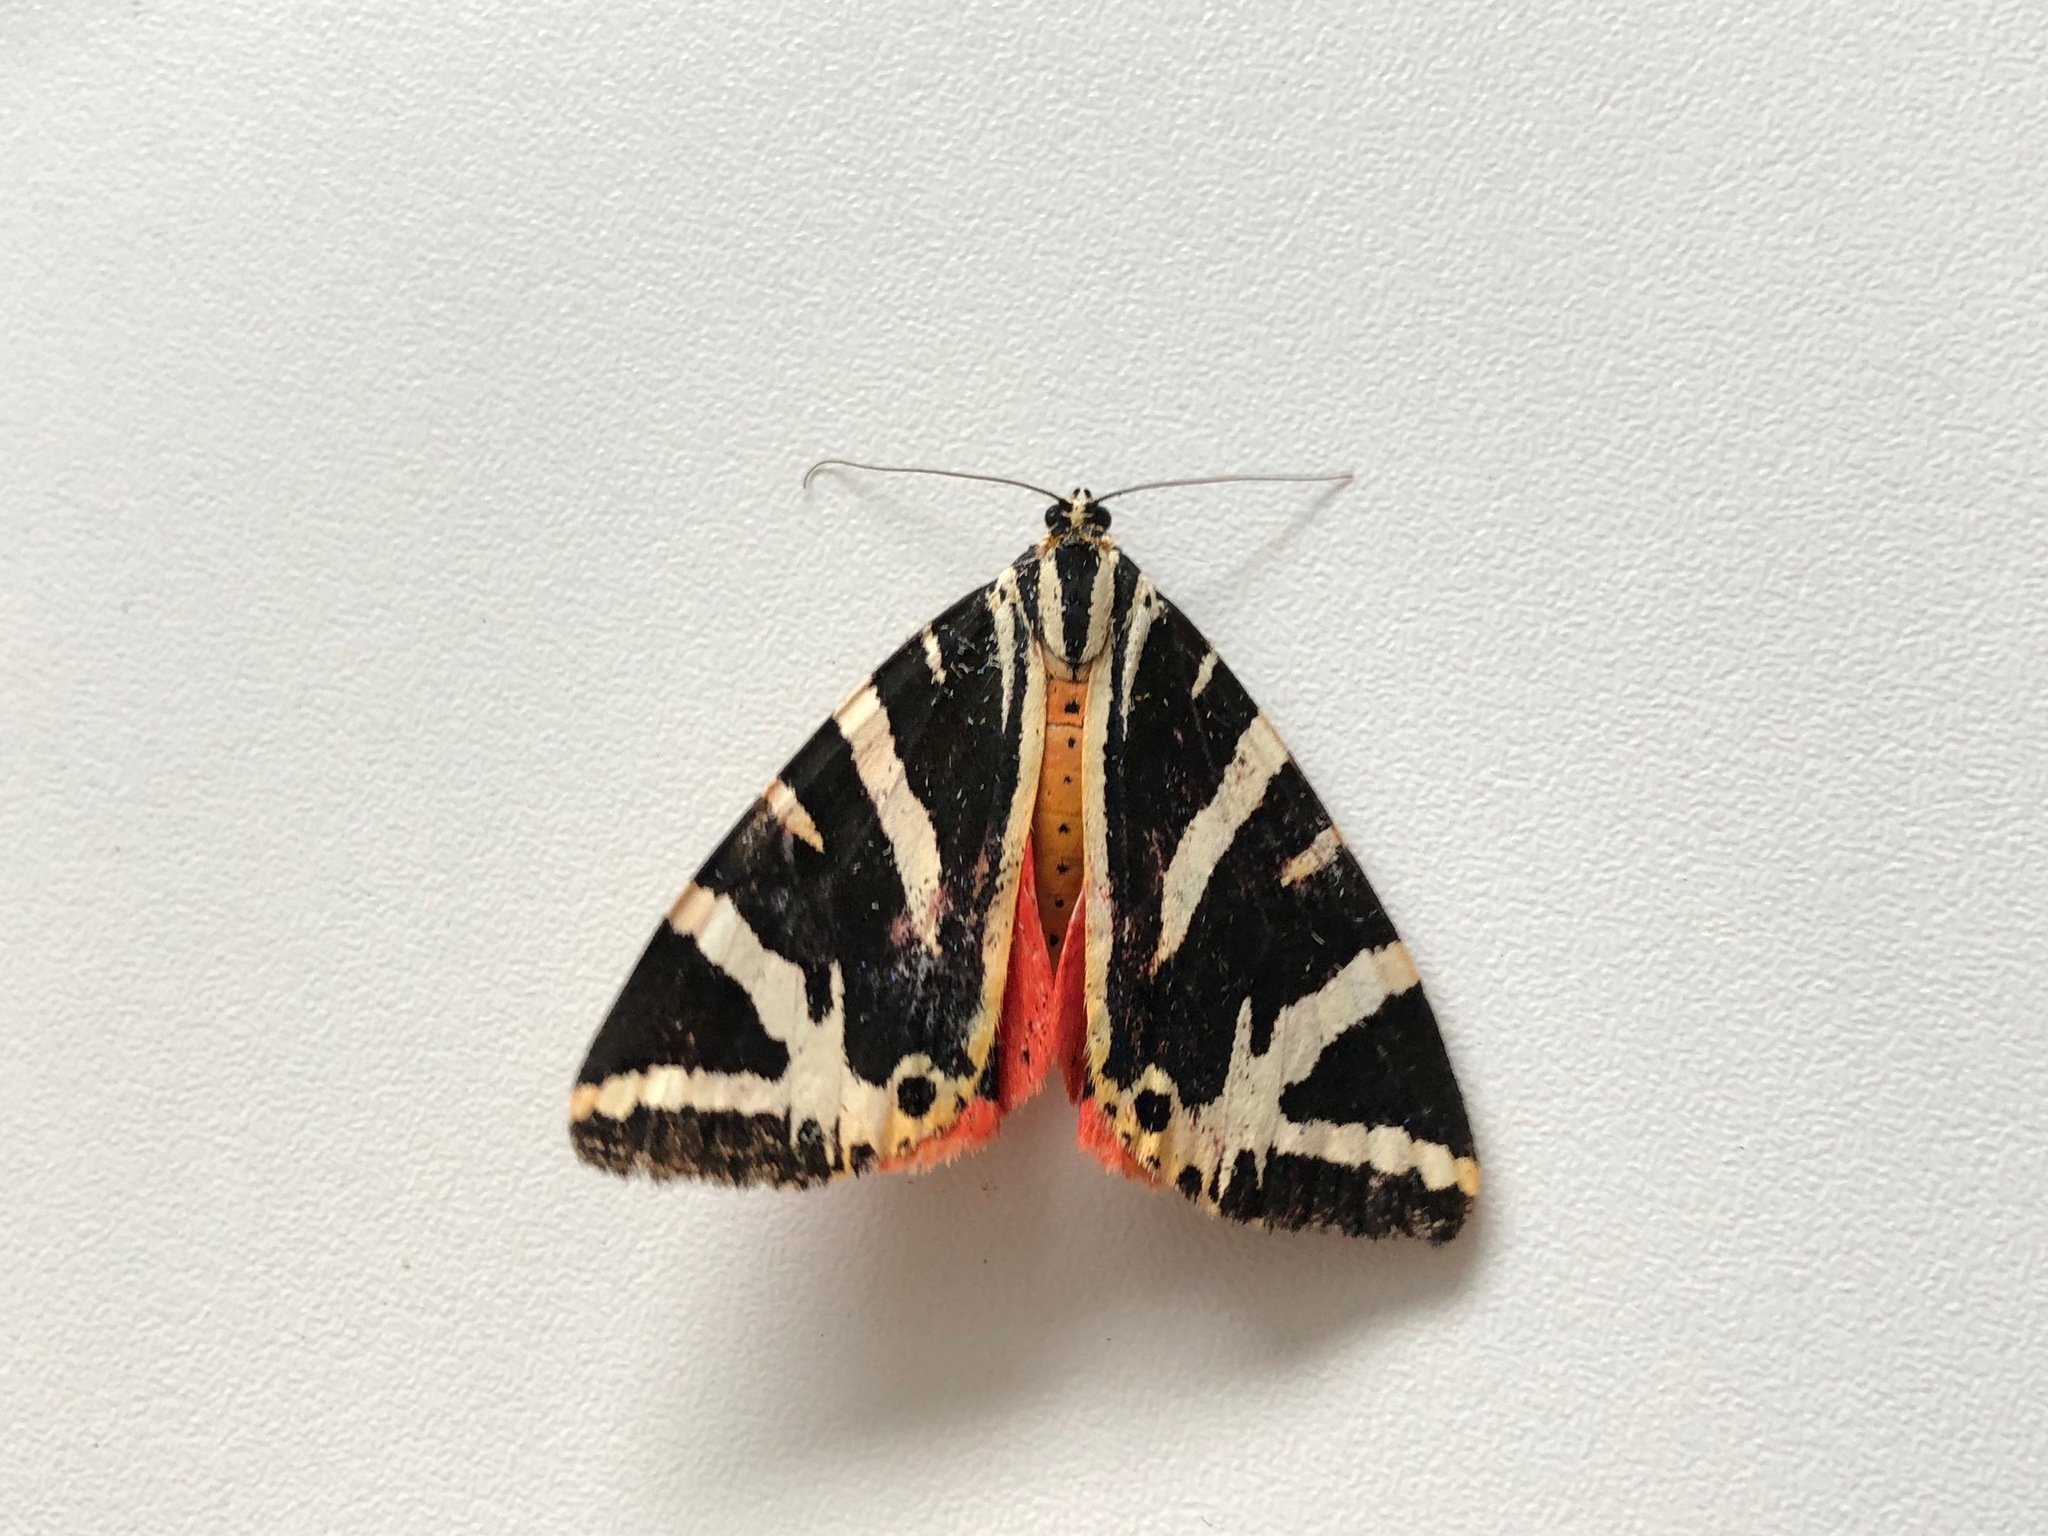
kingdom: Animalia
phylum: Arthropoda
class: Insecta
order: Lepidoptera
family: Erebidae
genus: Euplagia
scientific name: Euplagia quadripunctaria
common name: Jersey tiger
